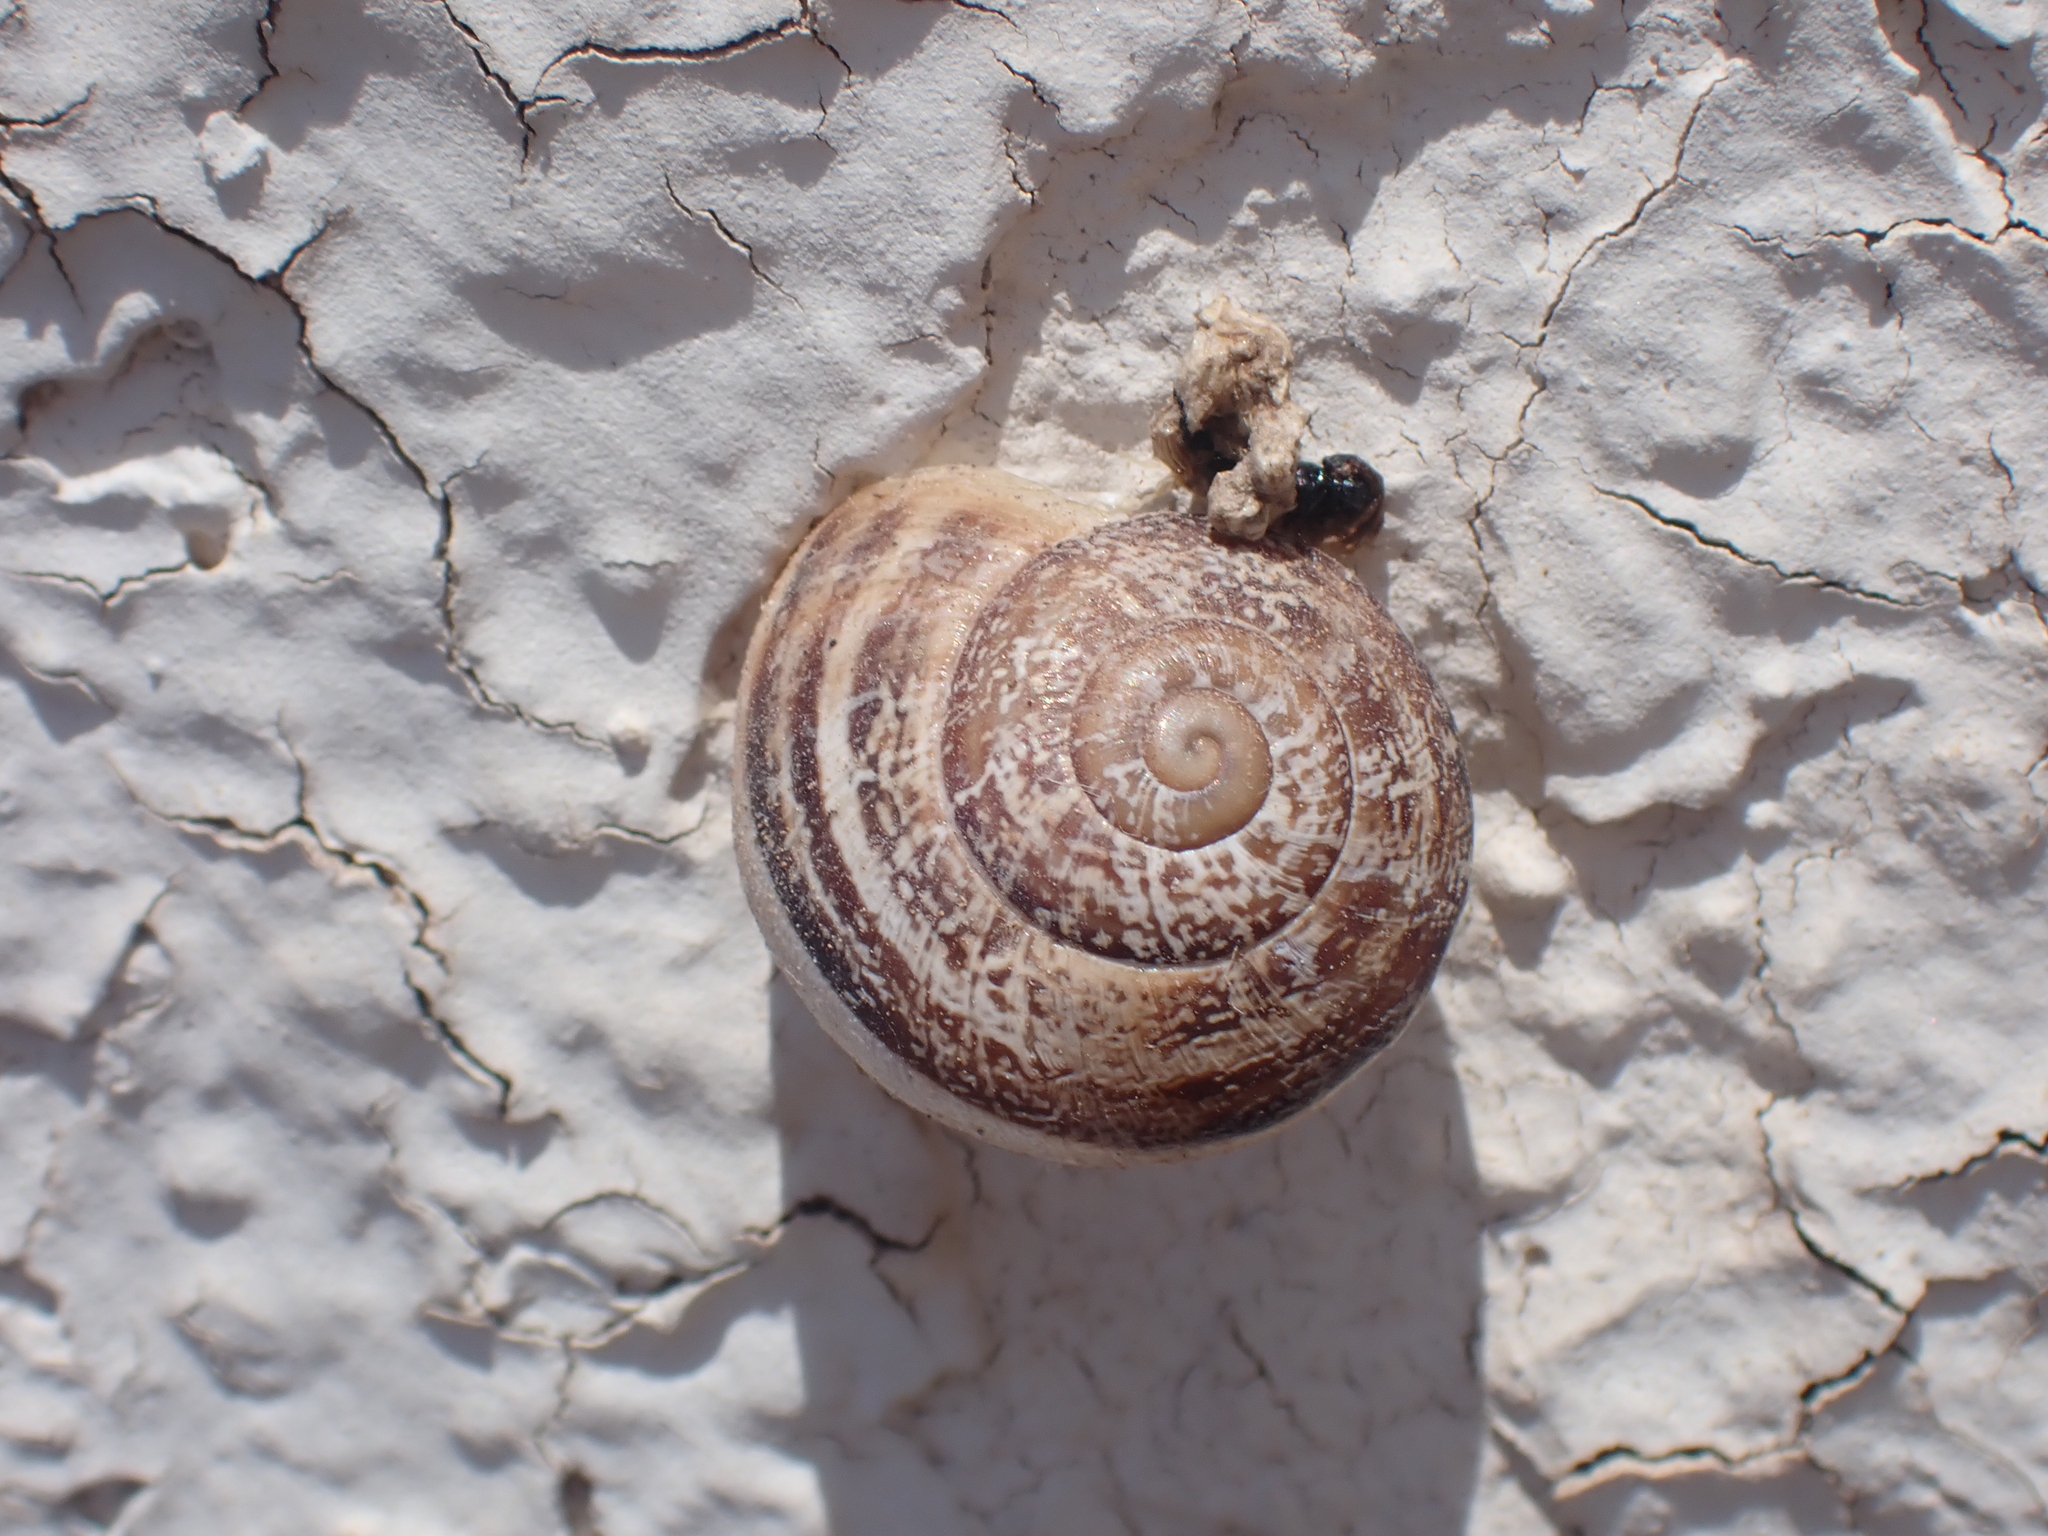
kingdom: Animalia
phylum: Mollusca
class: Gastropoda
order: Stylommatophora
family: Helicidae
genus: Eobania
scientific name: Eobania vermiculata
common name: Chocolateband snail
